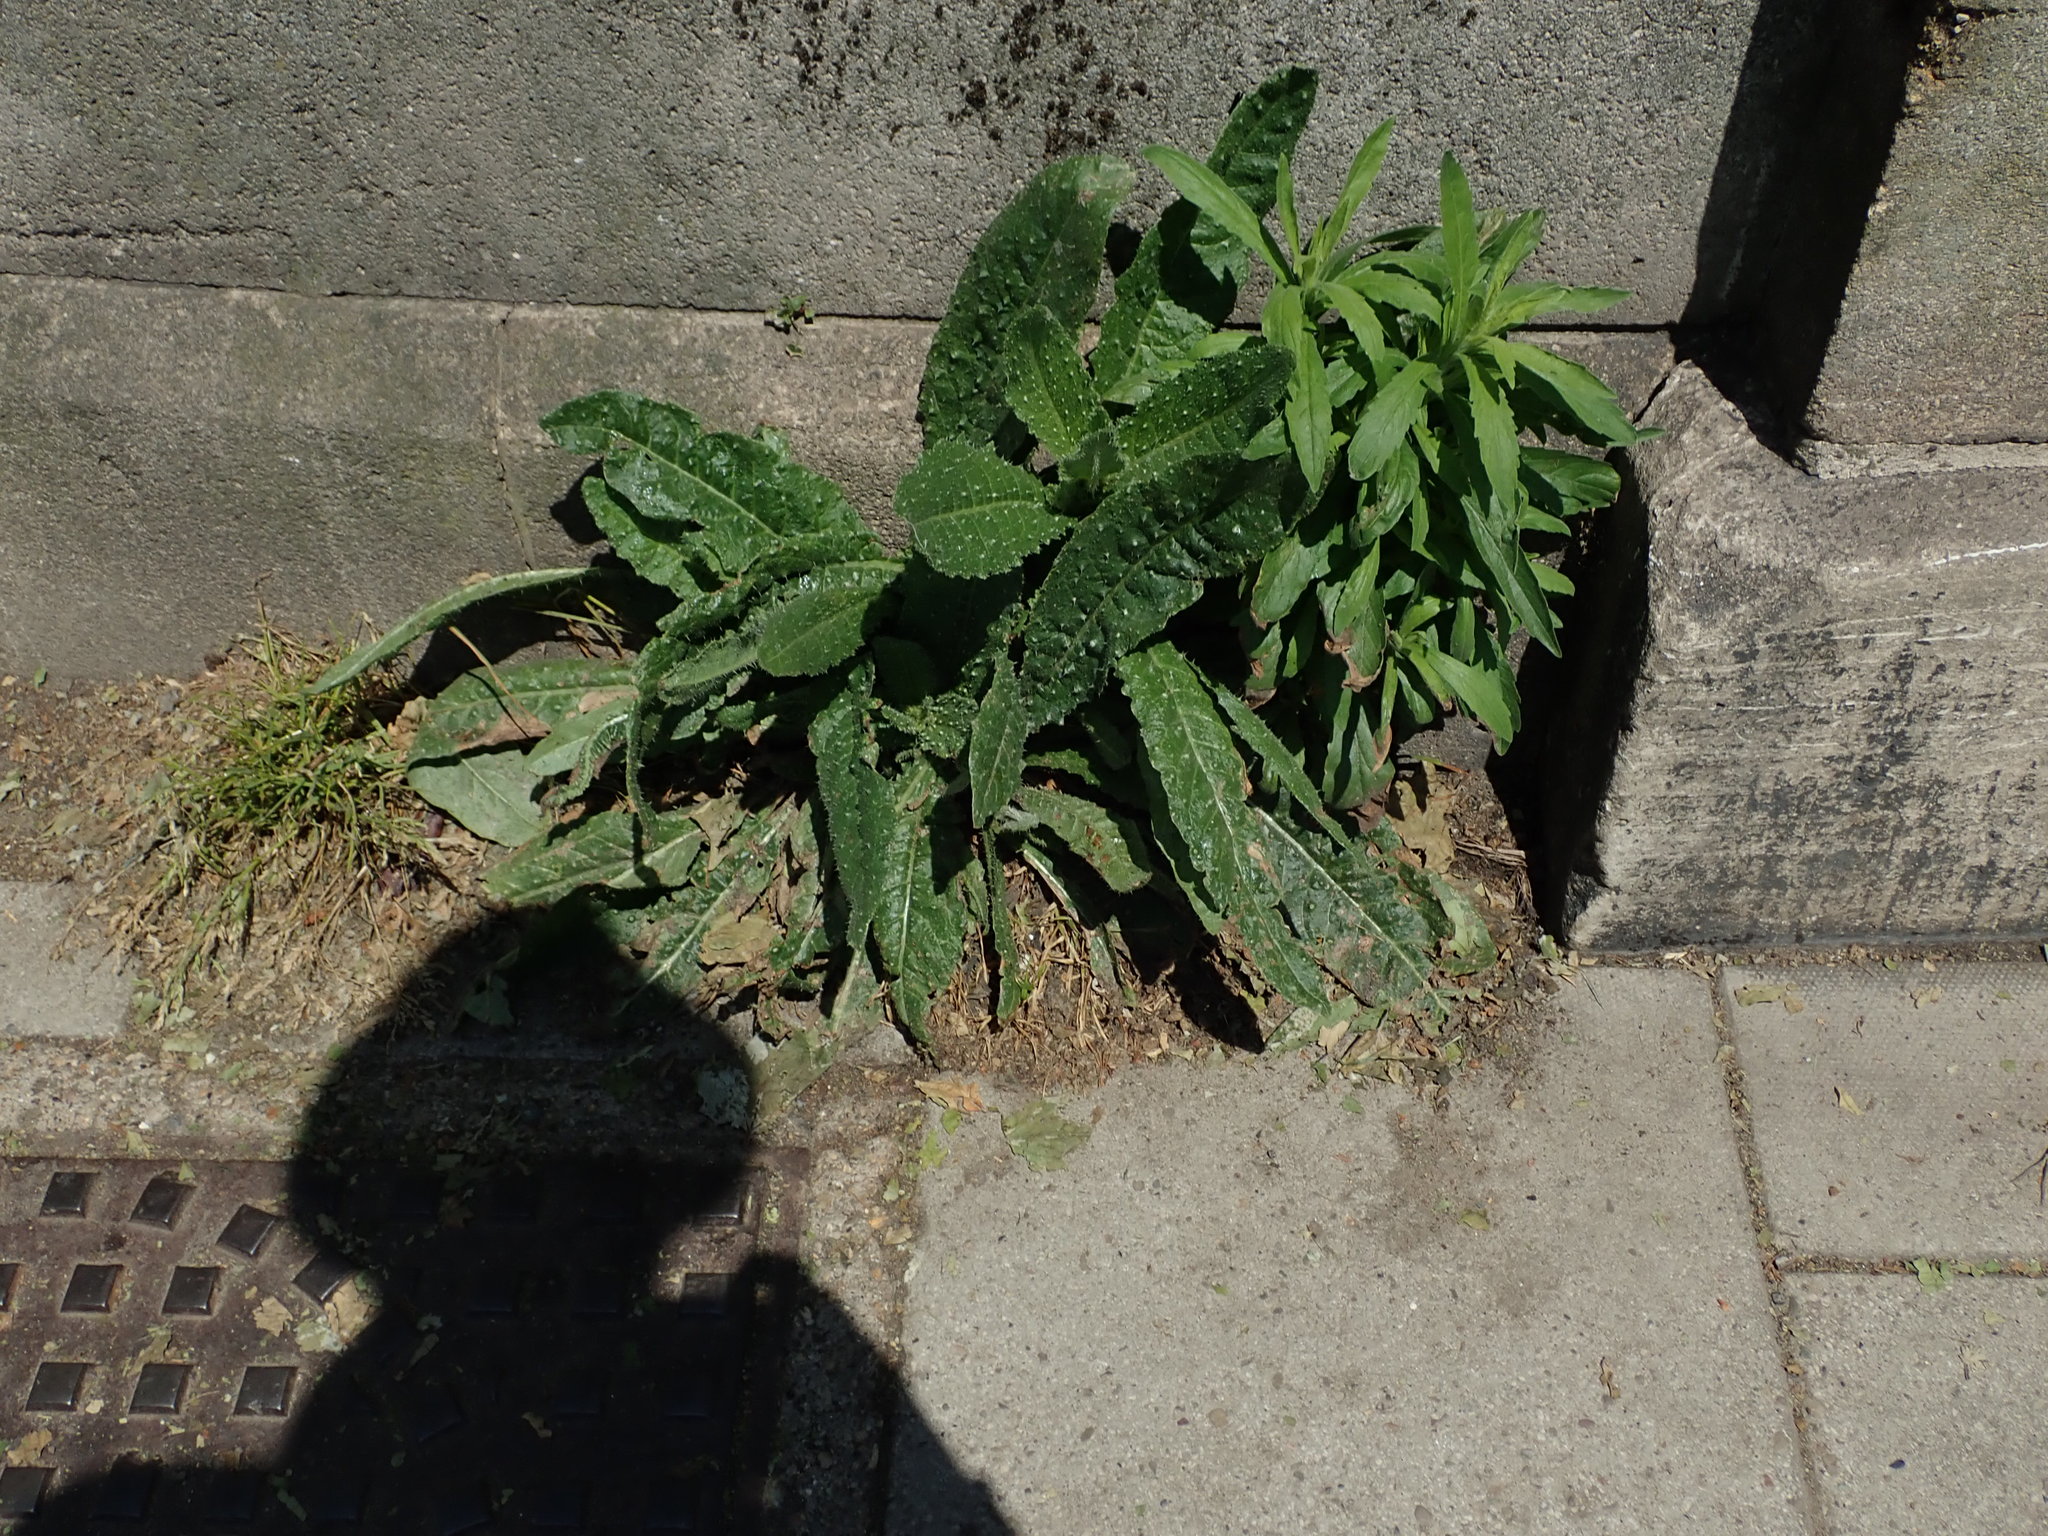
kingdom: Plantae
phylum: Tracheophyta
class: Magnoliopsida
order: Asterales
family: Asteraceae
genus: Helminthotheca
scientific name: Helminthotheca echioides
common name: Ox-tongue
